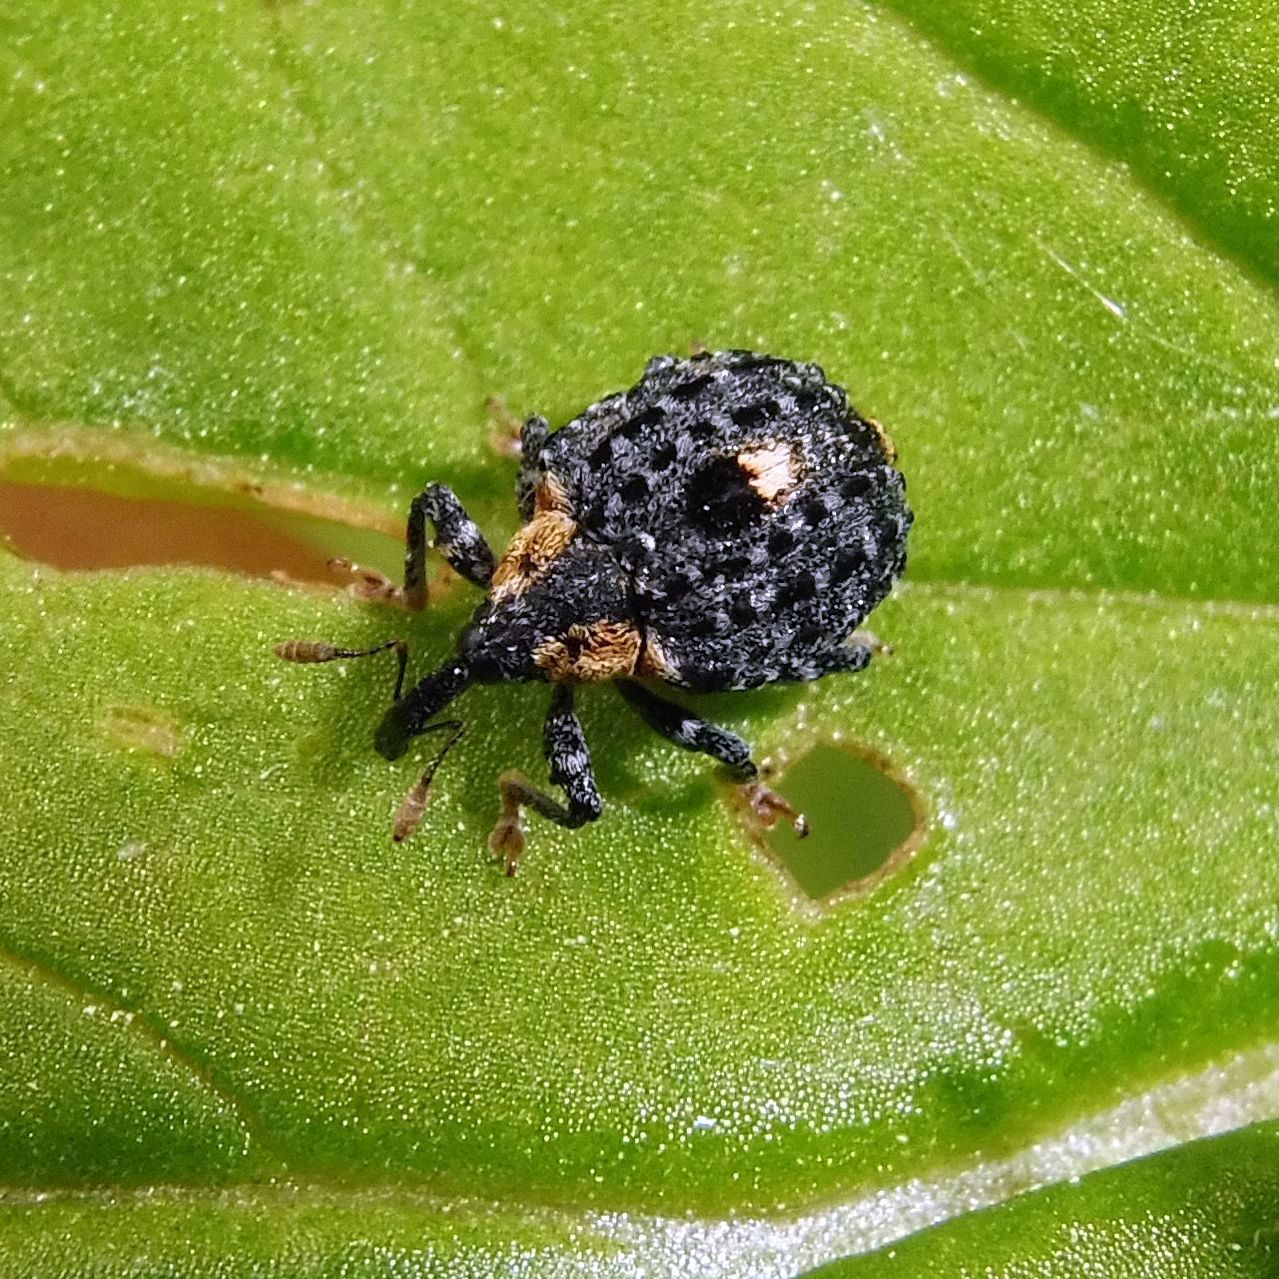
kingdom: Animalia
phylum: Arthropoda
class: Insecta
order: Coleoptera
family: Curculionidae
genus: Cionus
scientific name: Cionus tuberculosus
